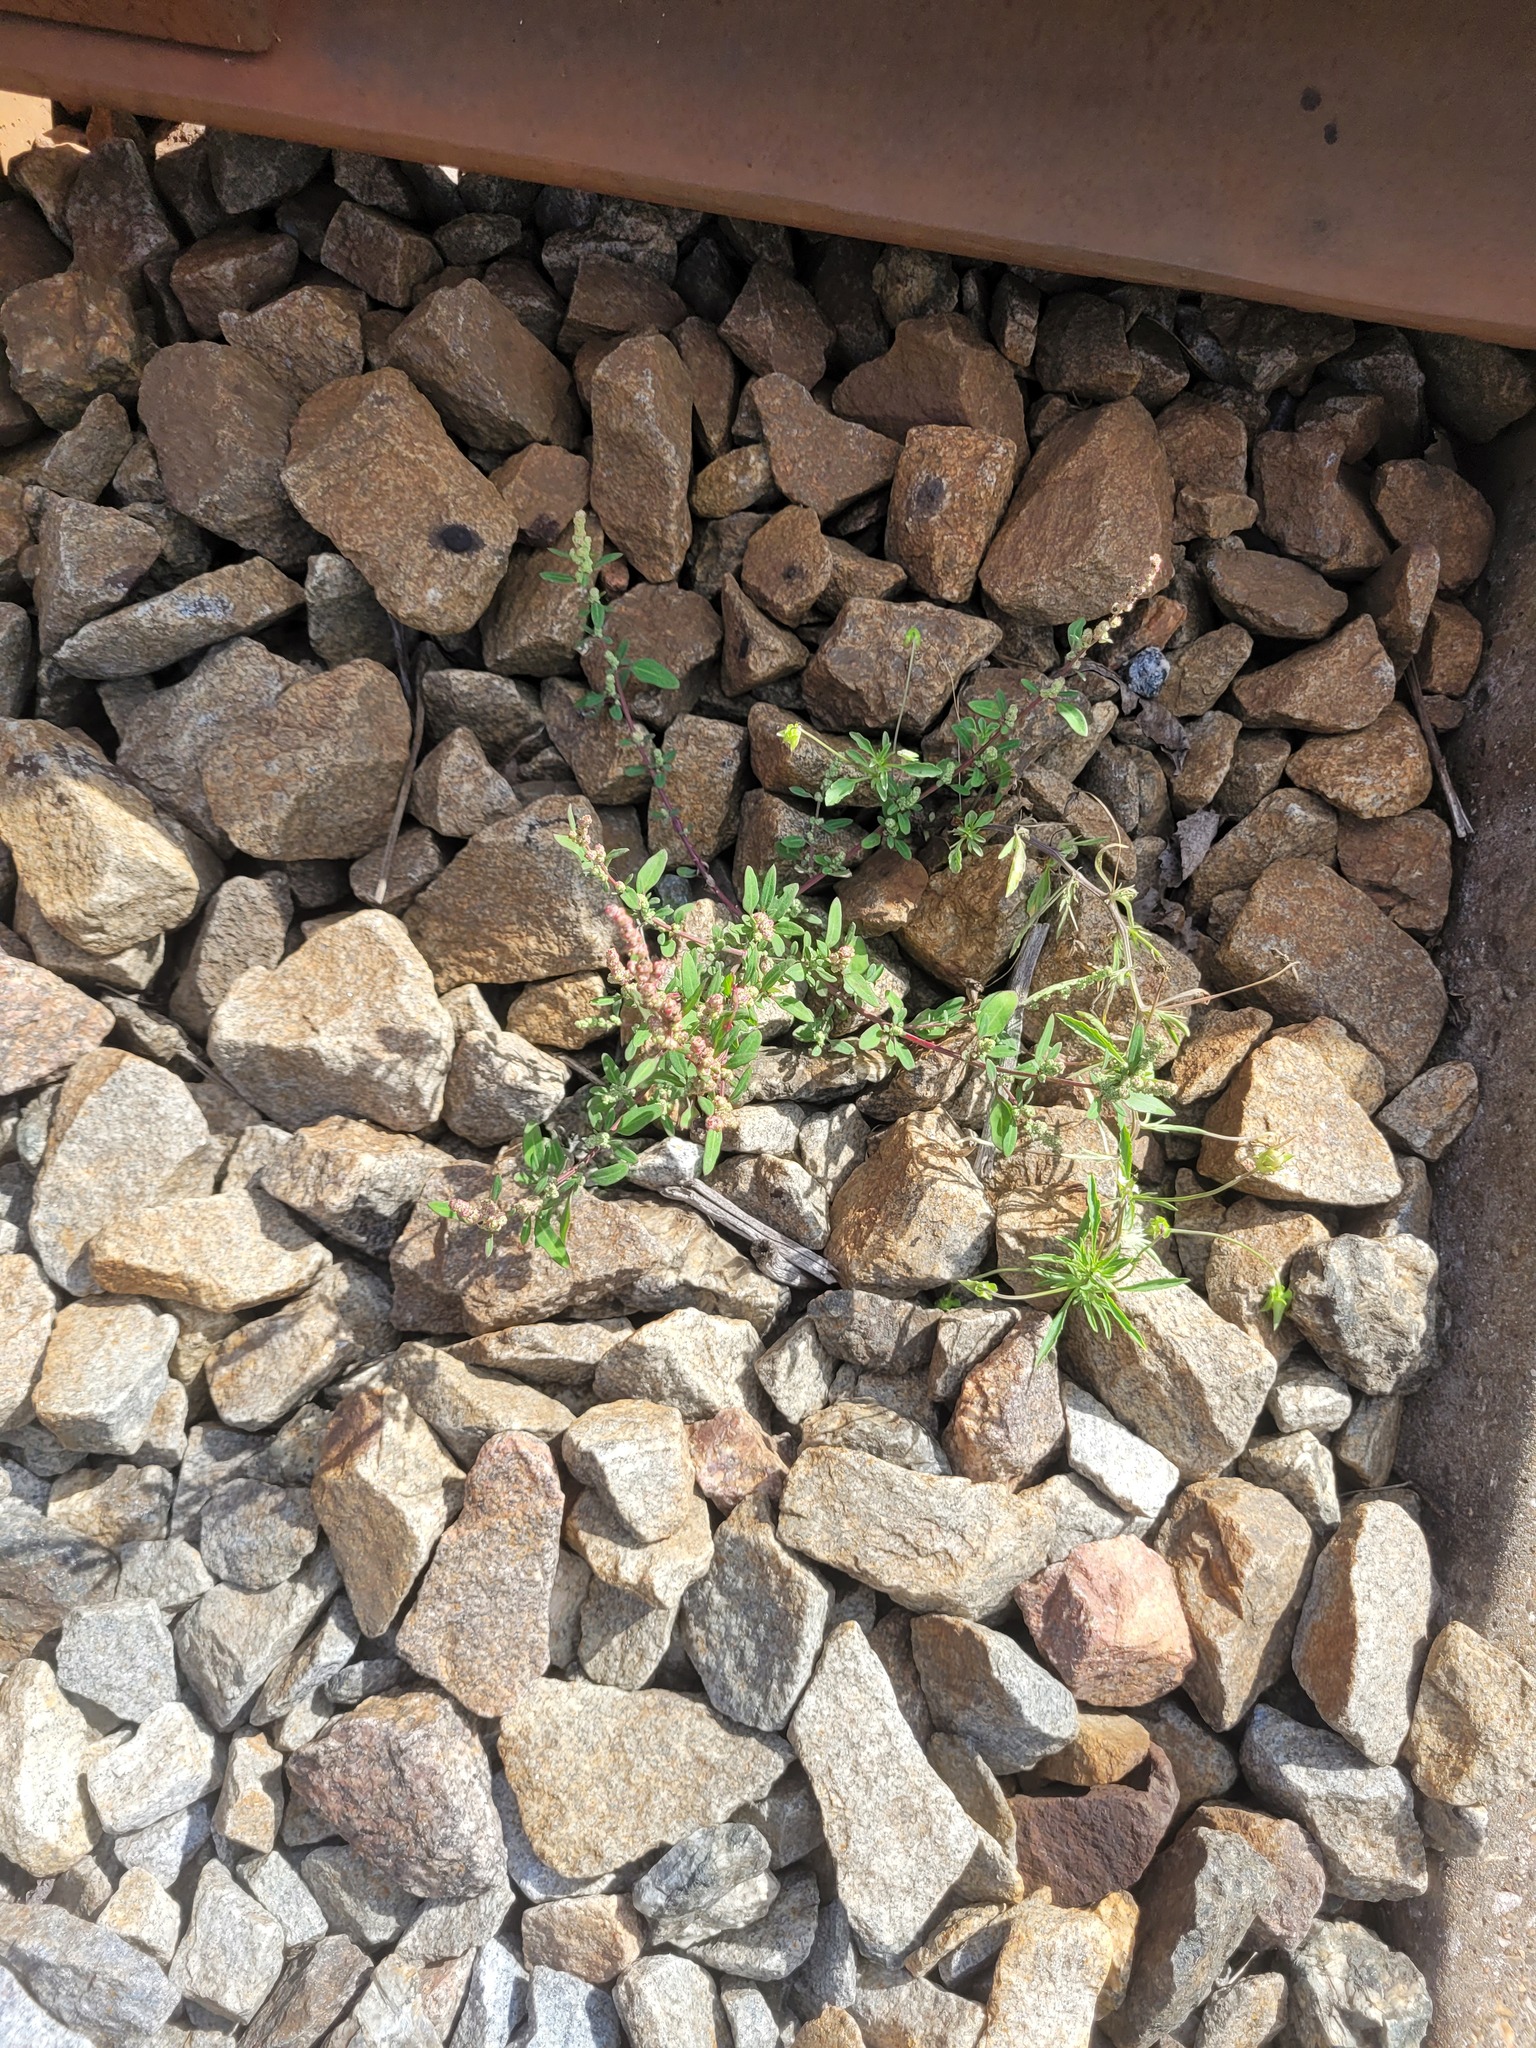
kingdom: Plantae
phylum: Tracheophyta
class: Magnoliopsida
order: Caryophyllales
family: Amaranthaceae
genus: Chenopodium
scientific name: Chenopodium betaceum
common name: Striped goosefoot
